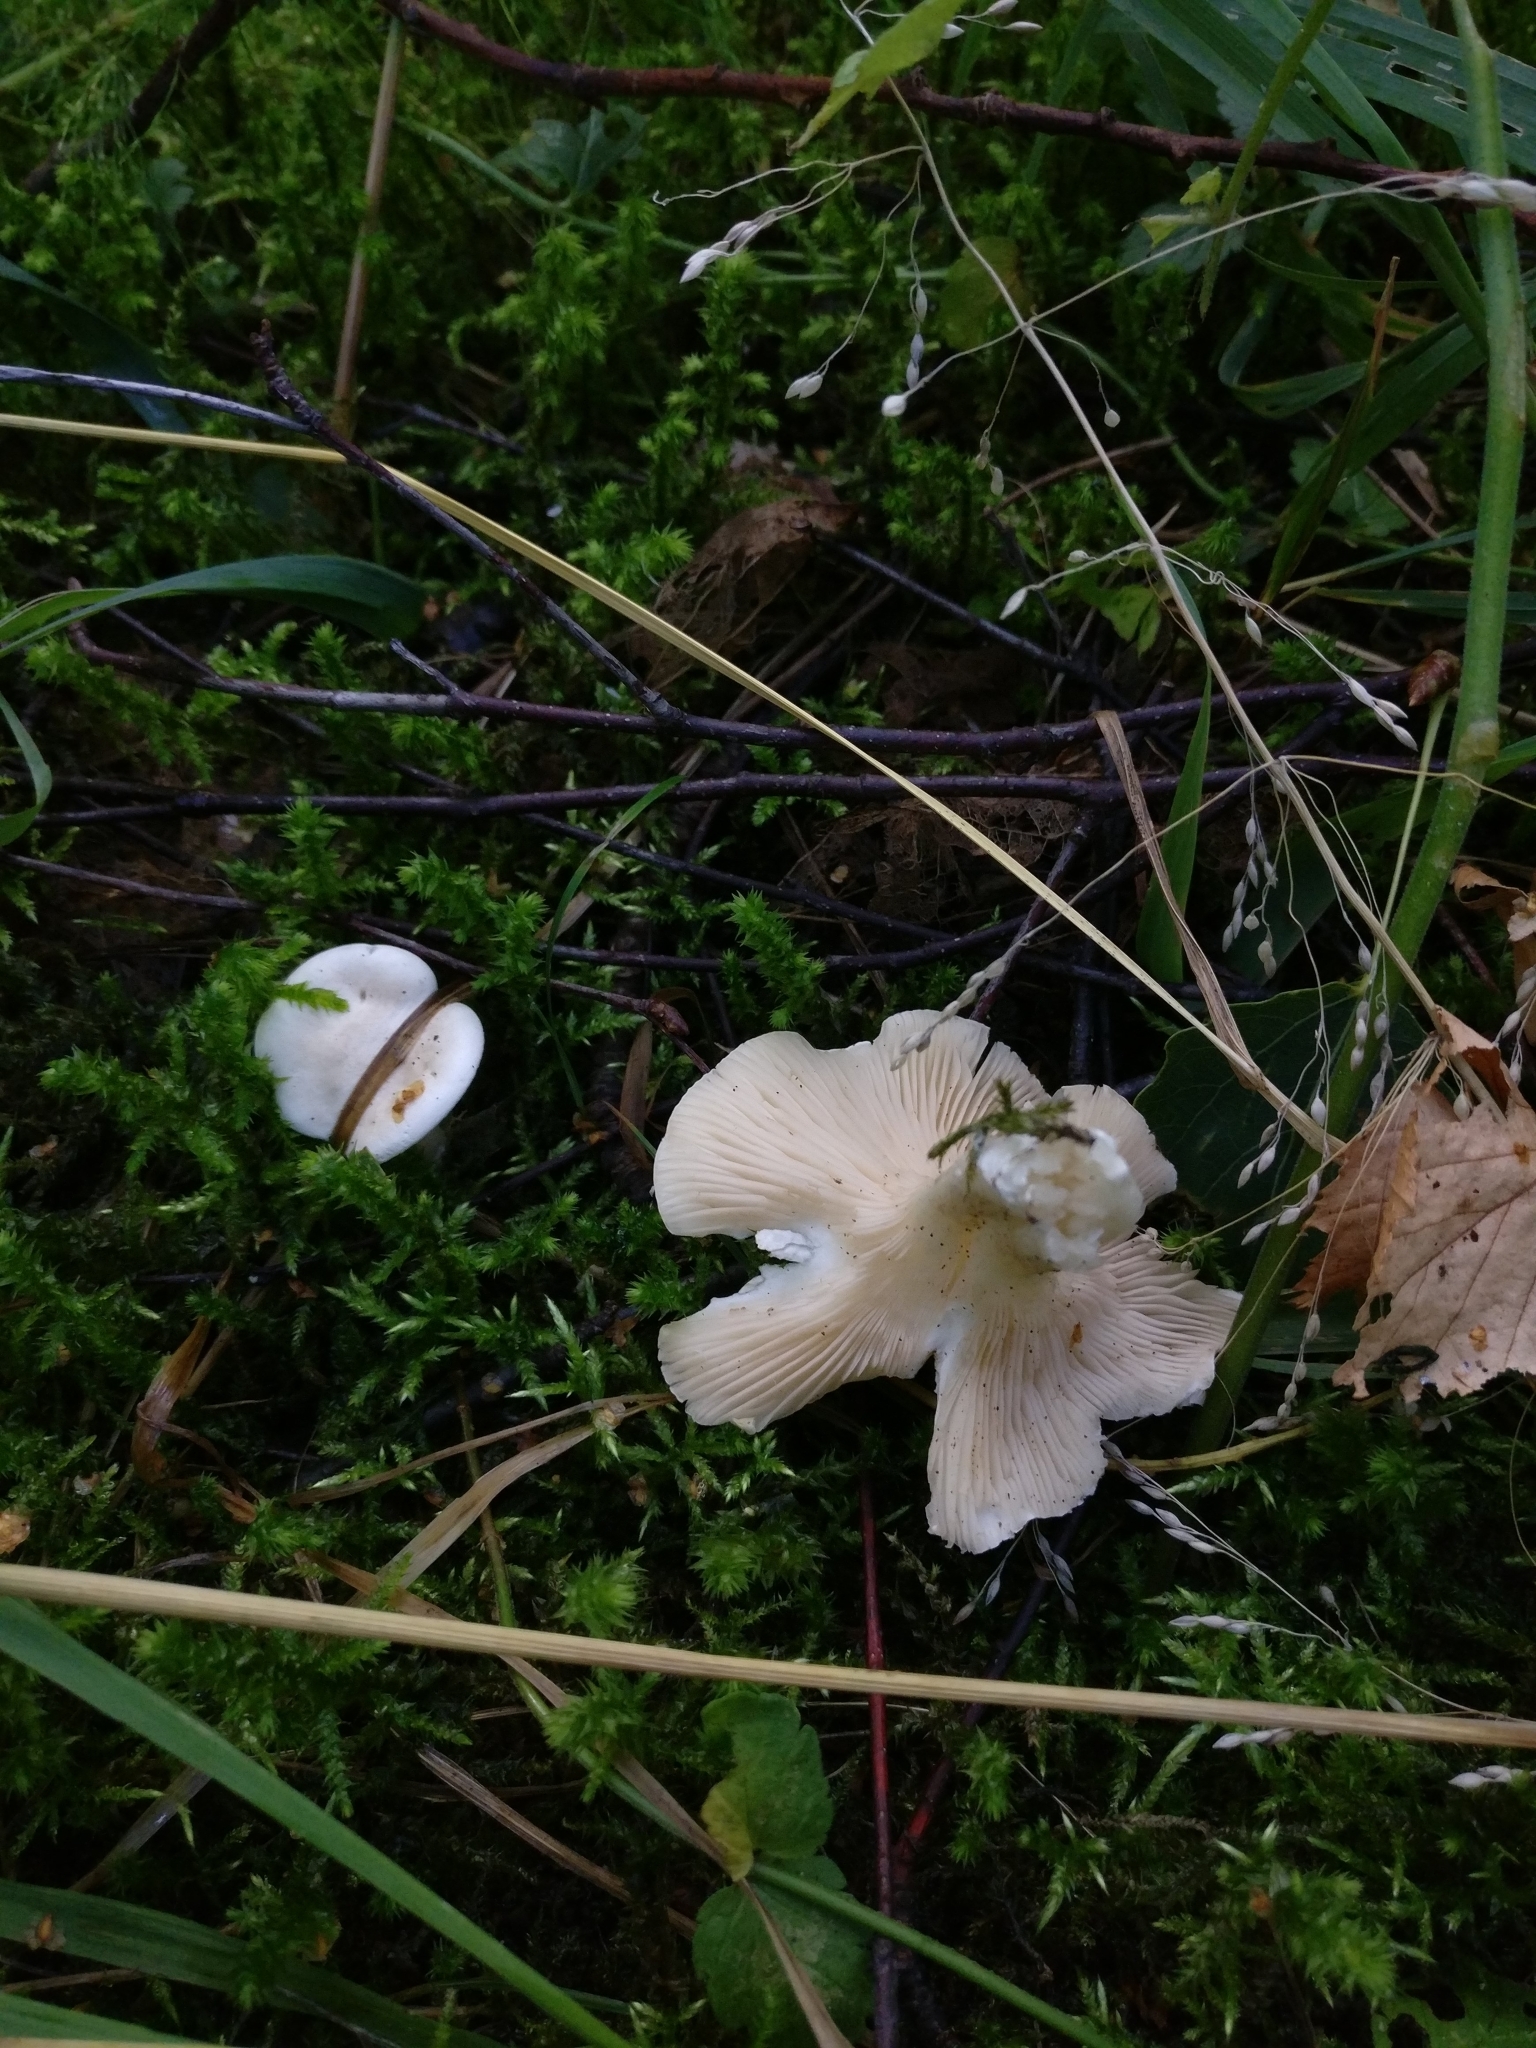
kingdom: Fungi
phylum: Basidiomycota
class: Agaricomycetes
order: Agaricales
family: Entolomataceae
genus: Clitopilus
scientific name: Clitopilus prunulus
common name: The miller
